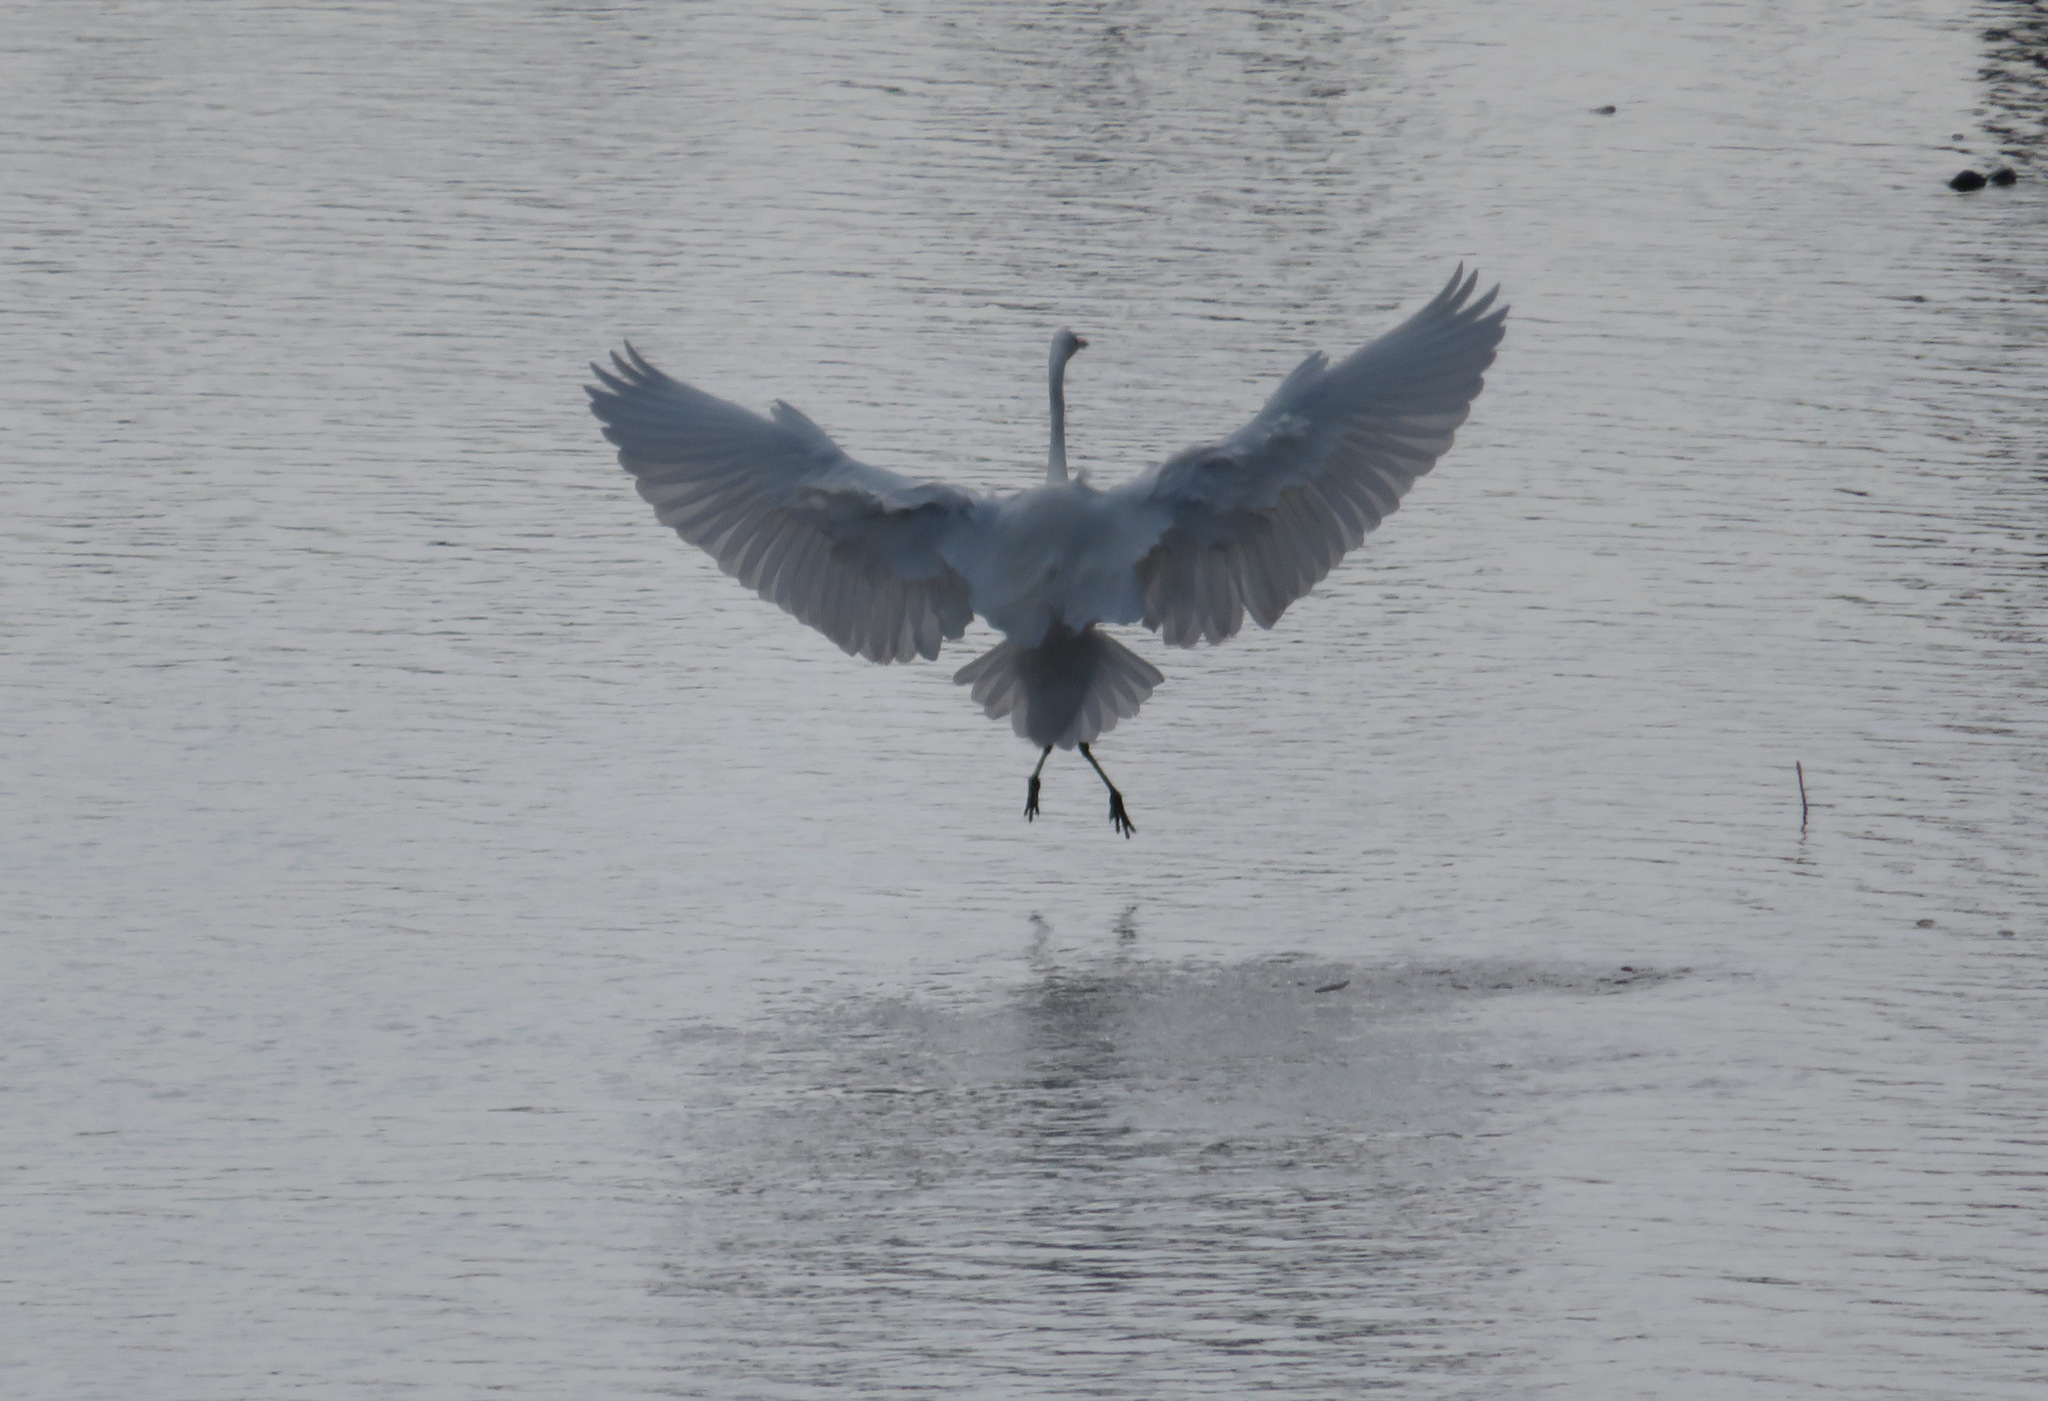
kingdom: Animalia
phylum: Chordata
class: Aves
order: Pelecaniformes
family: Ardeidae
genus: Ardea
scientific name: Ardea alba
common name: Great egret
